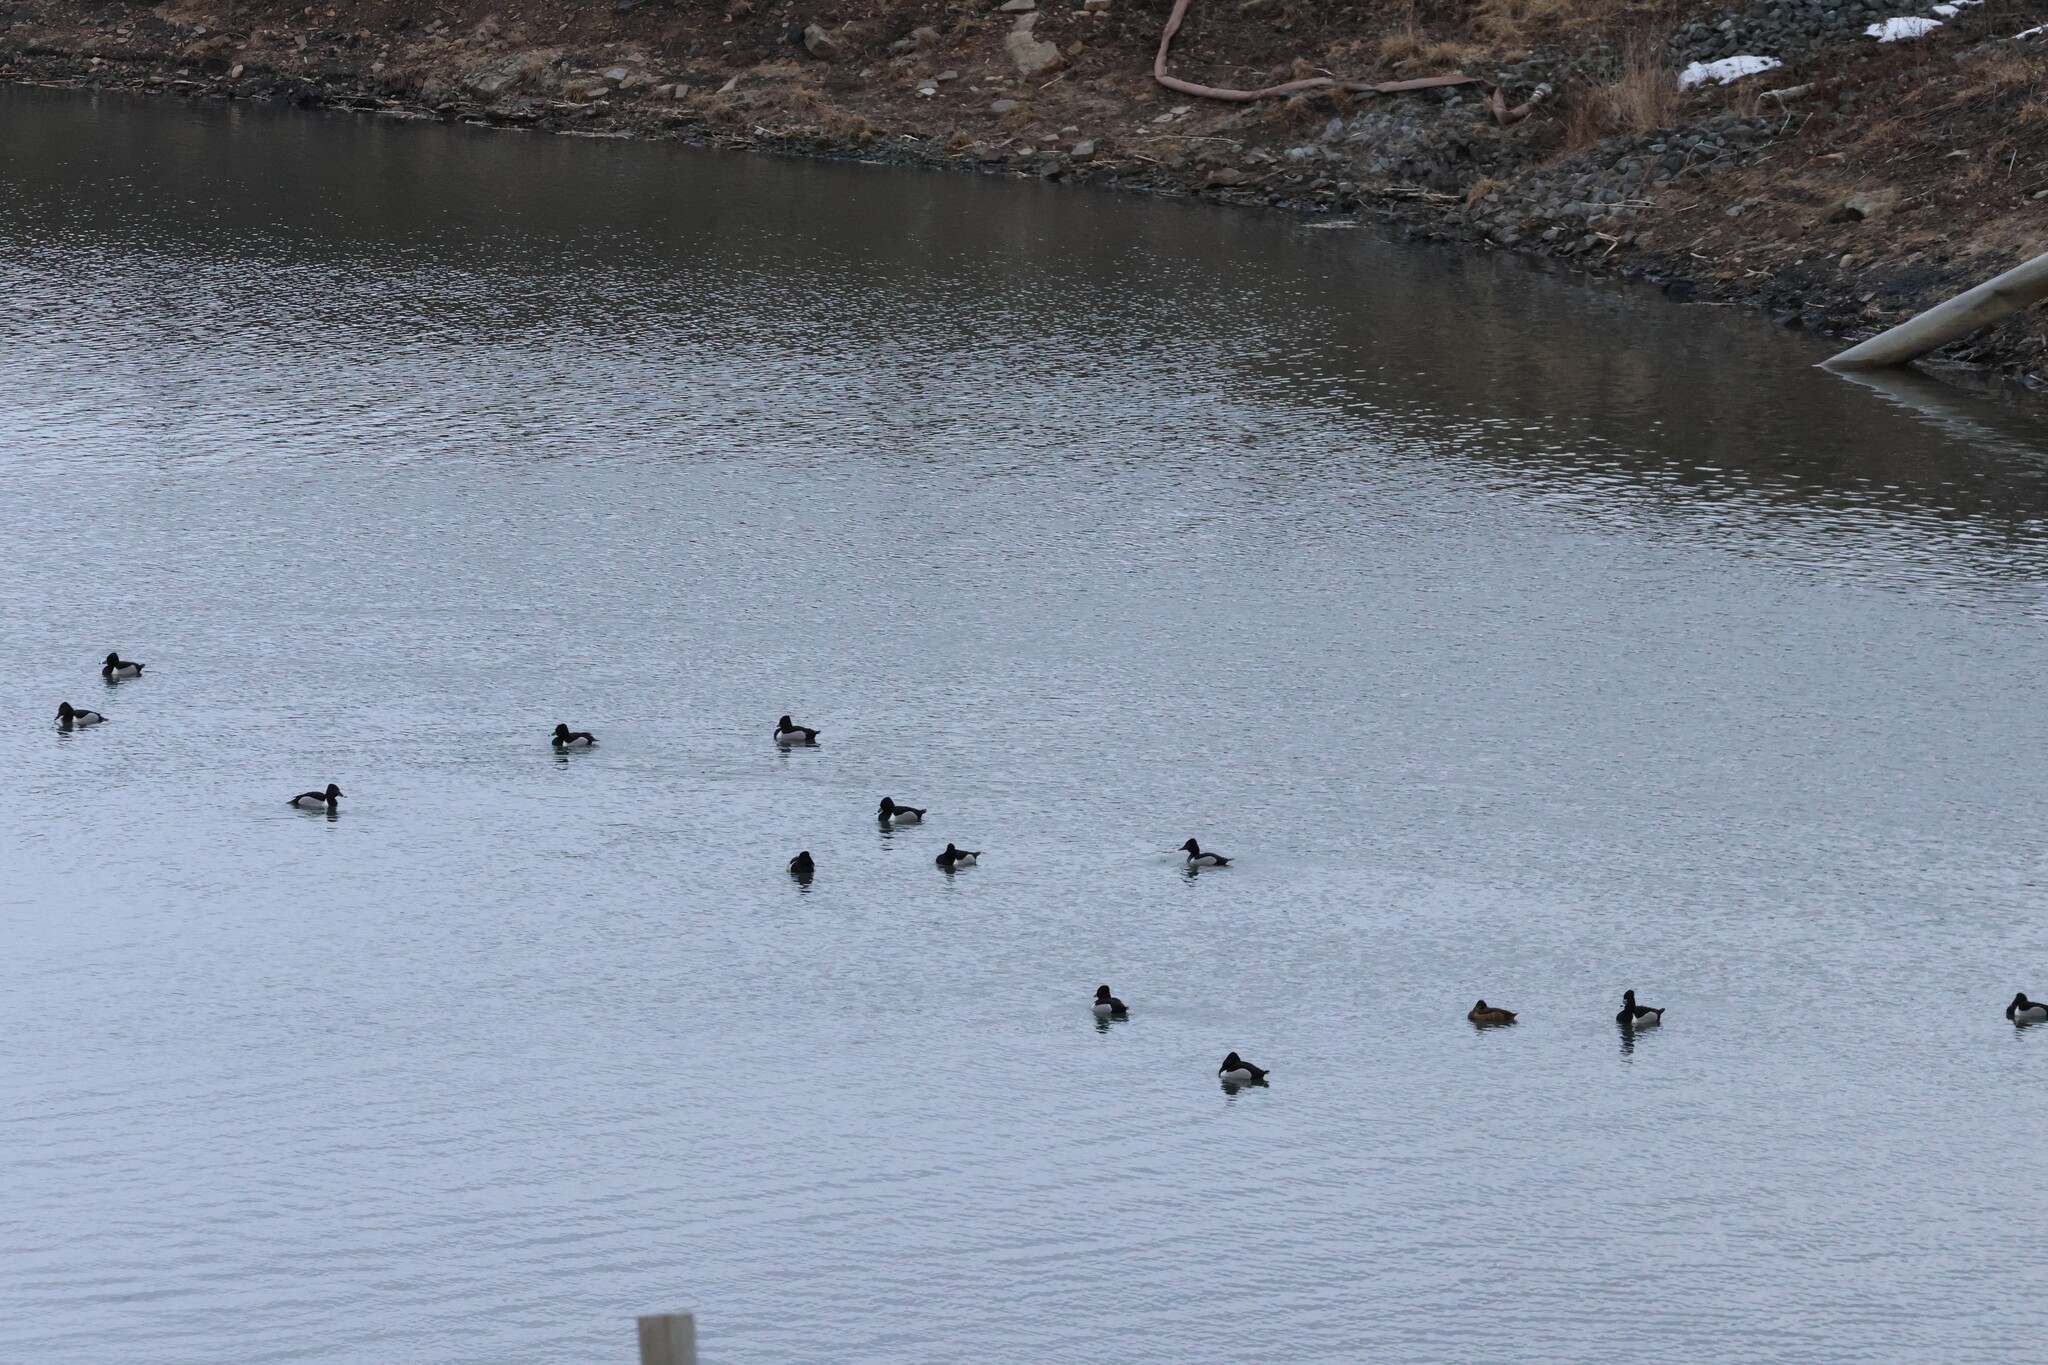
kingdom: Animalia
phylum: Chordata
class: Aves
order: Anseriformes
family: Anatidae
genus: Aythya
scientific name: Aythya collaris
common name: Ring-necked duck
